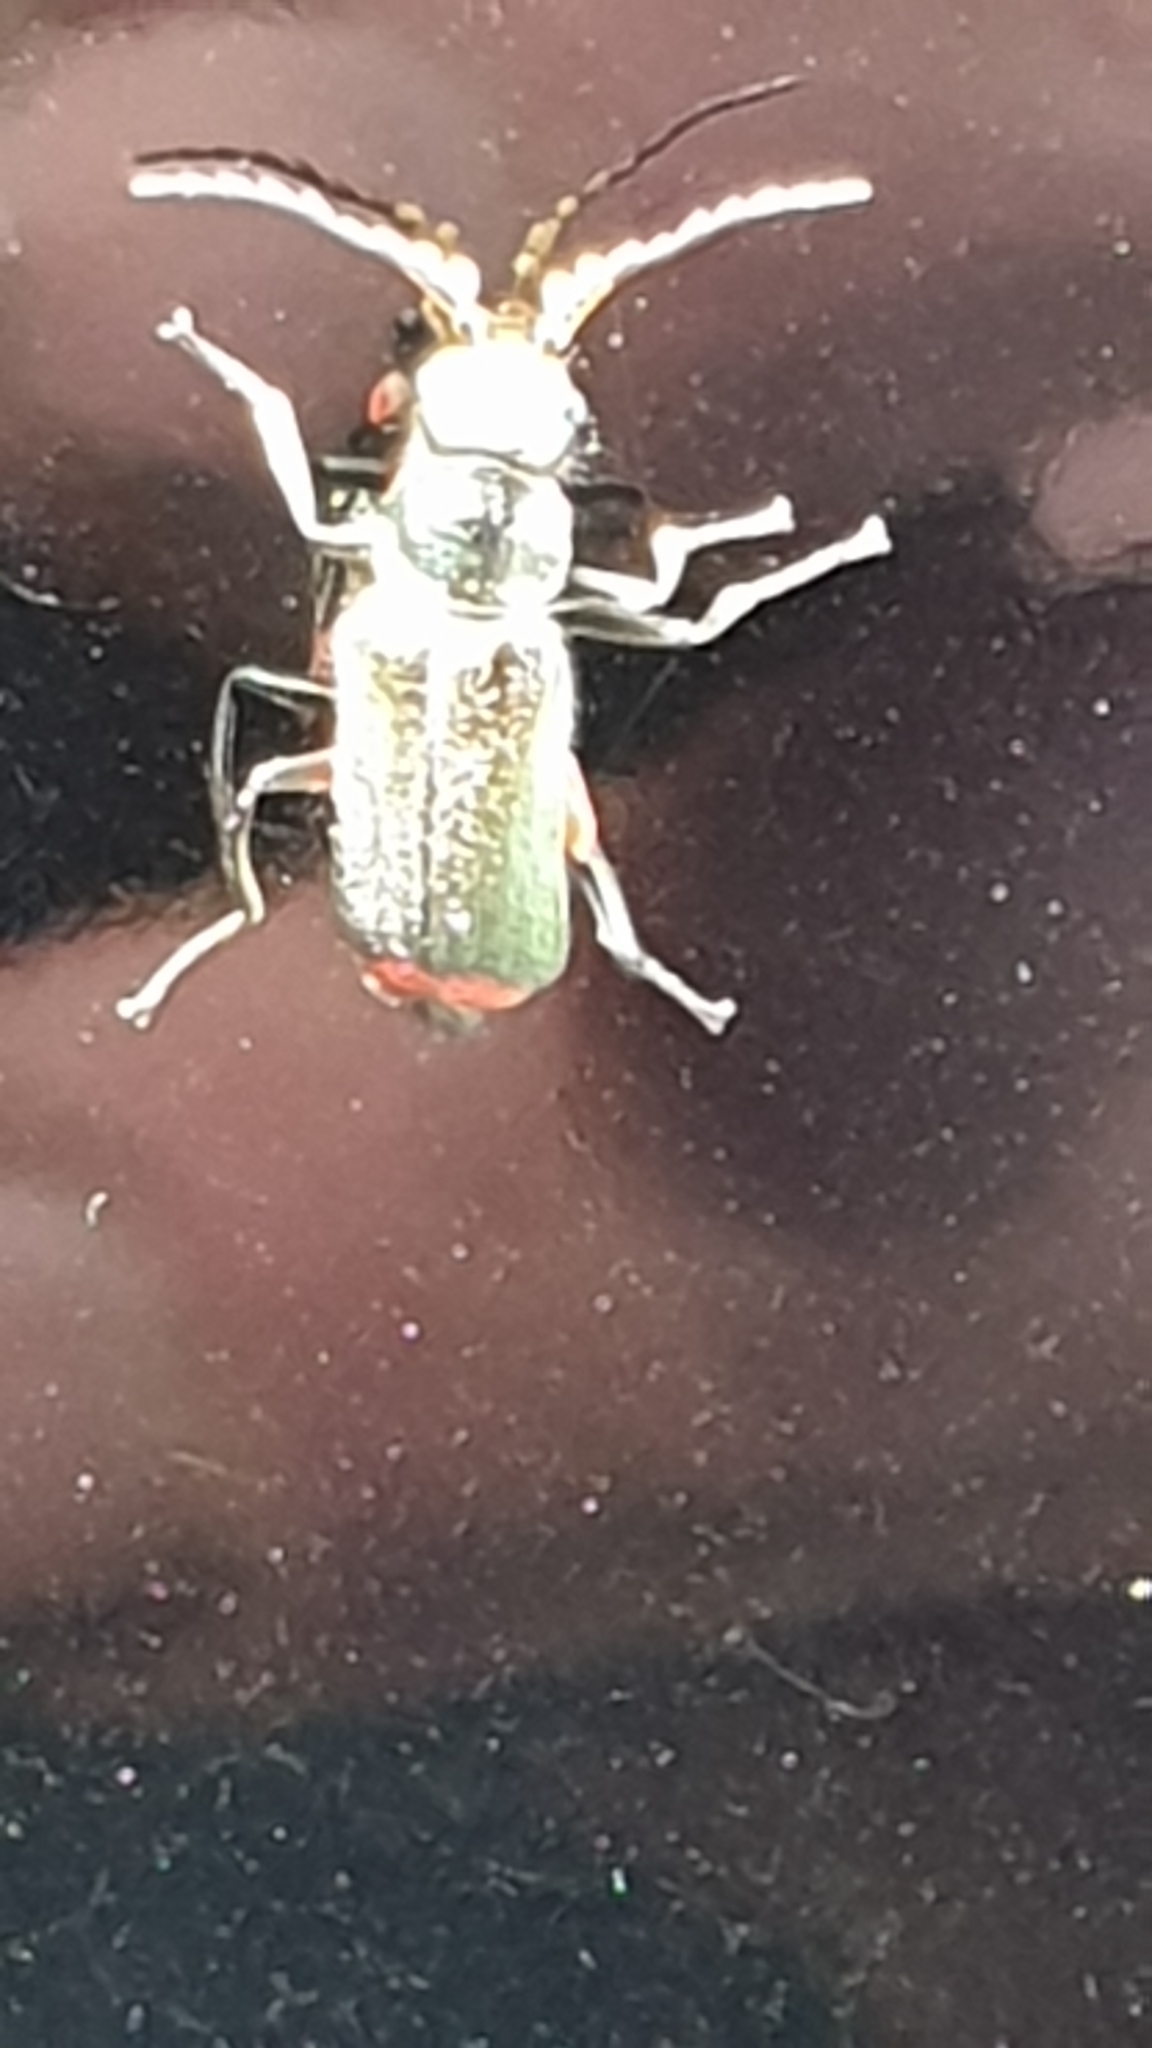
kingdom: Animalia
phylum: Arthropoda
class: Insecta
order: Coleoptera
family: Melyridae
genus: Malachius
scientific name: Malachius bipustulatus
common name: Malachite beetle
